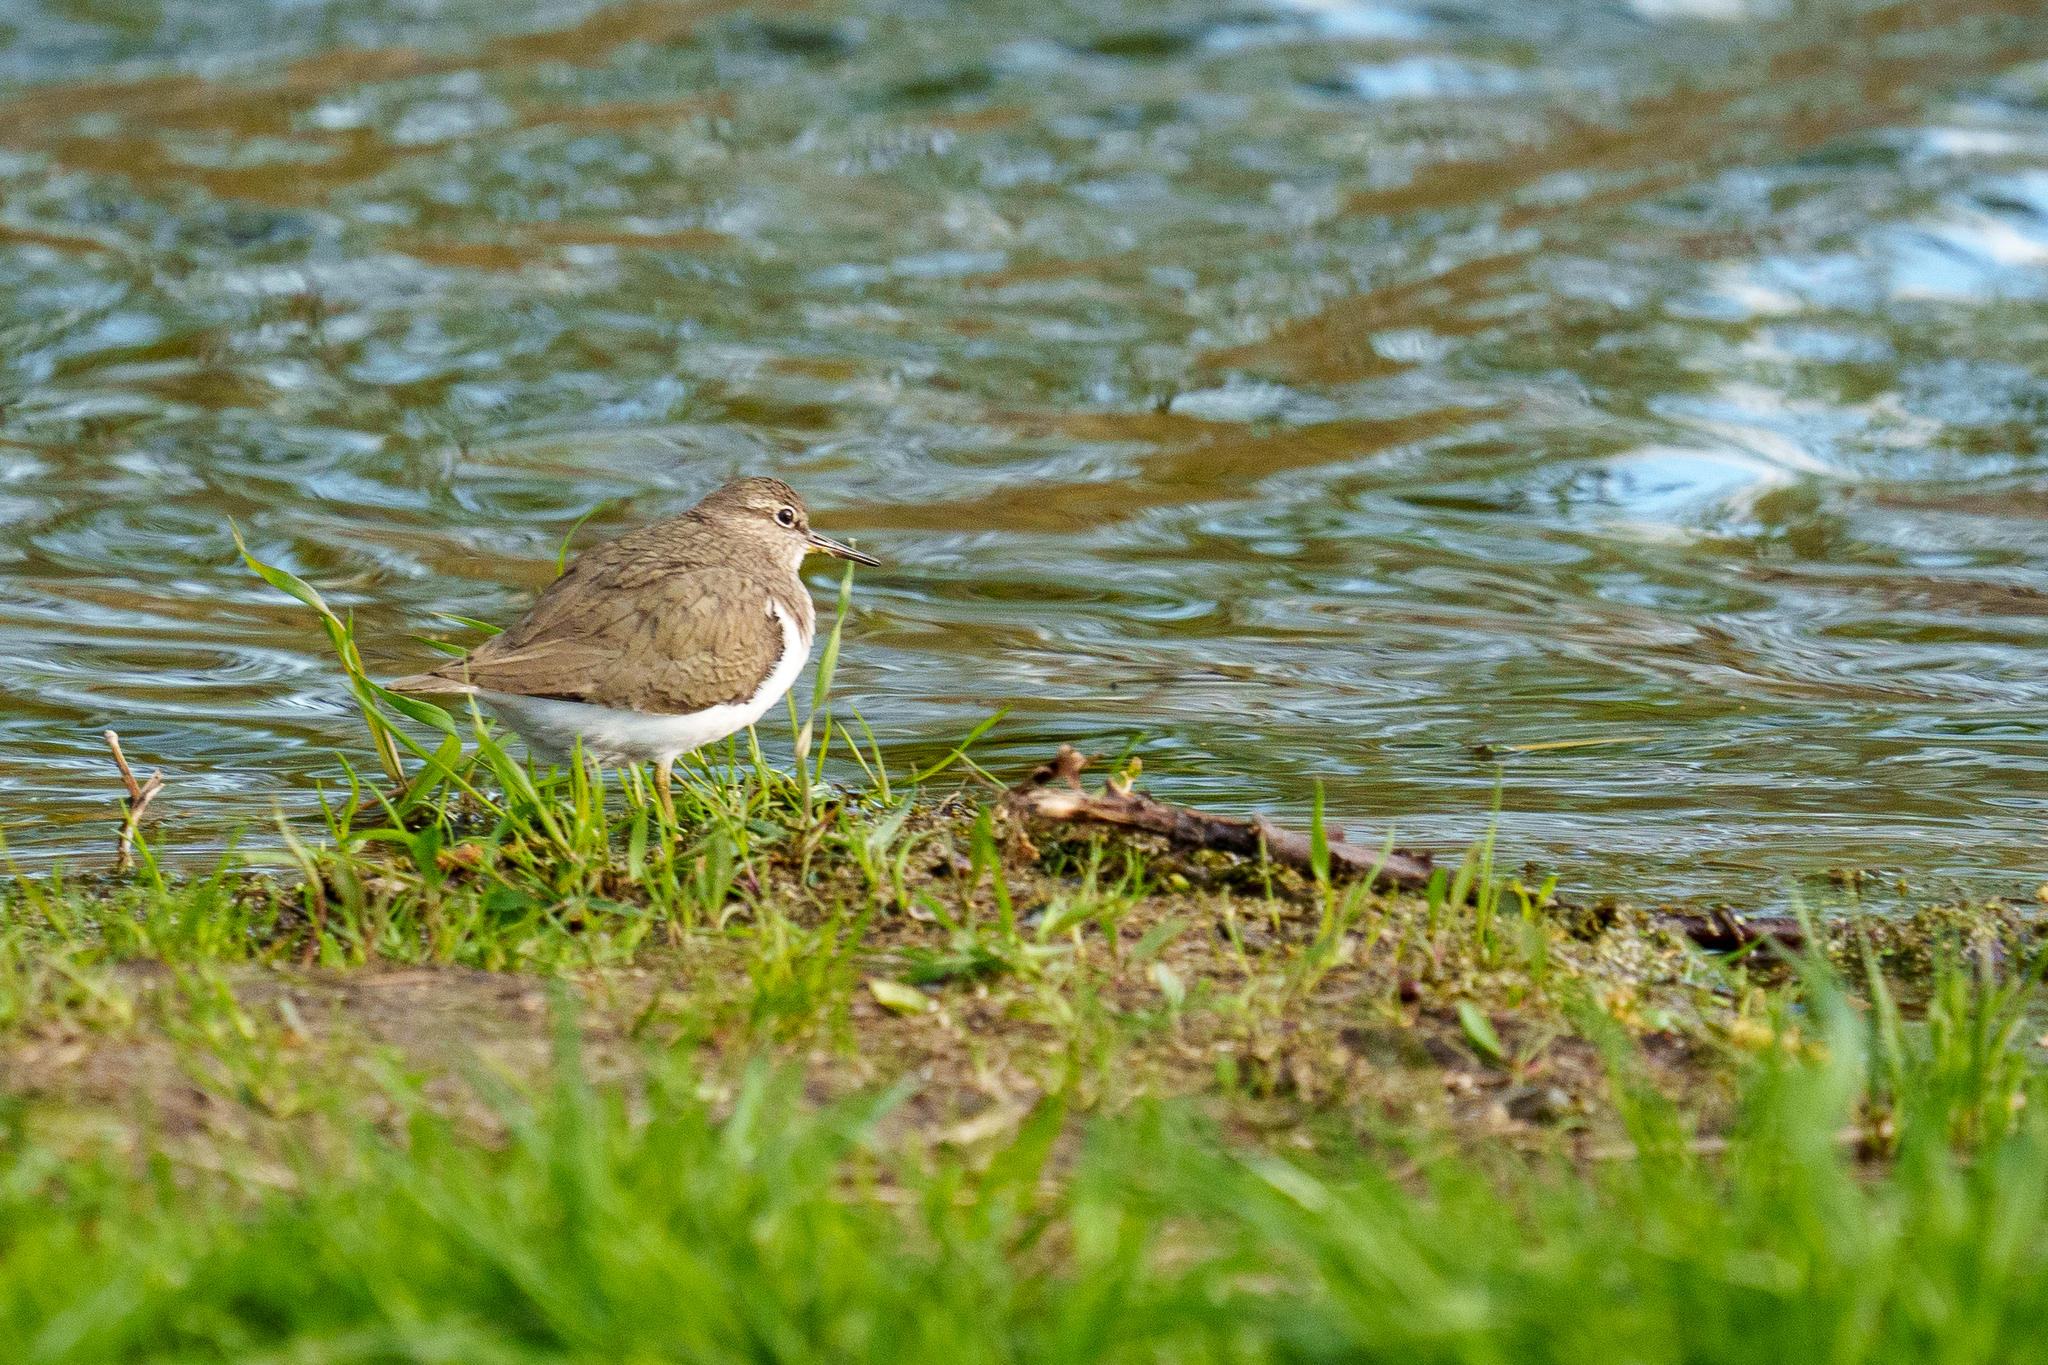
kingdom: Animalia
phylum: Chordata
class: Aves
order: Charadriiformes
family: Scolopacidae
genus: Actitis
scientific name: Actitis hypoleucos
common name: Common sandpiper
